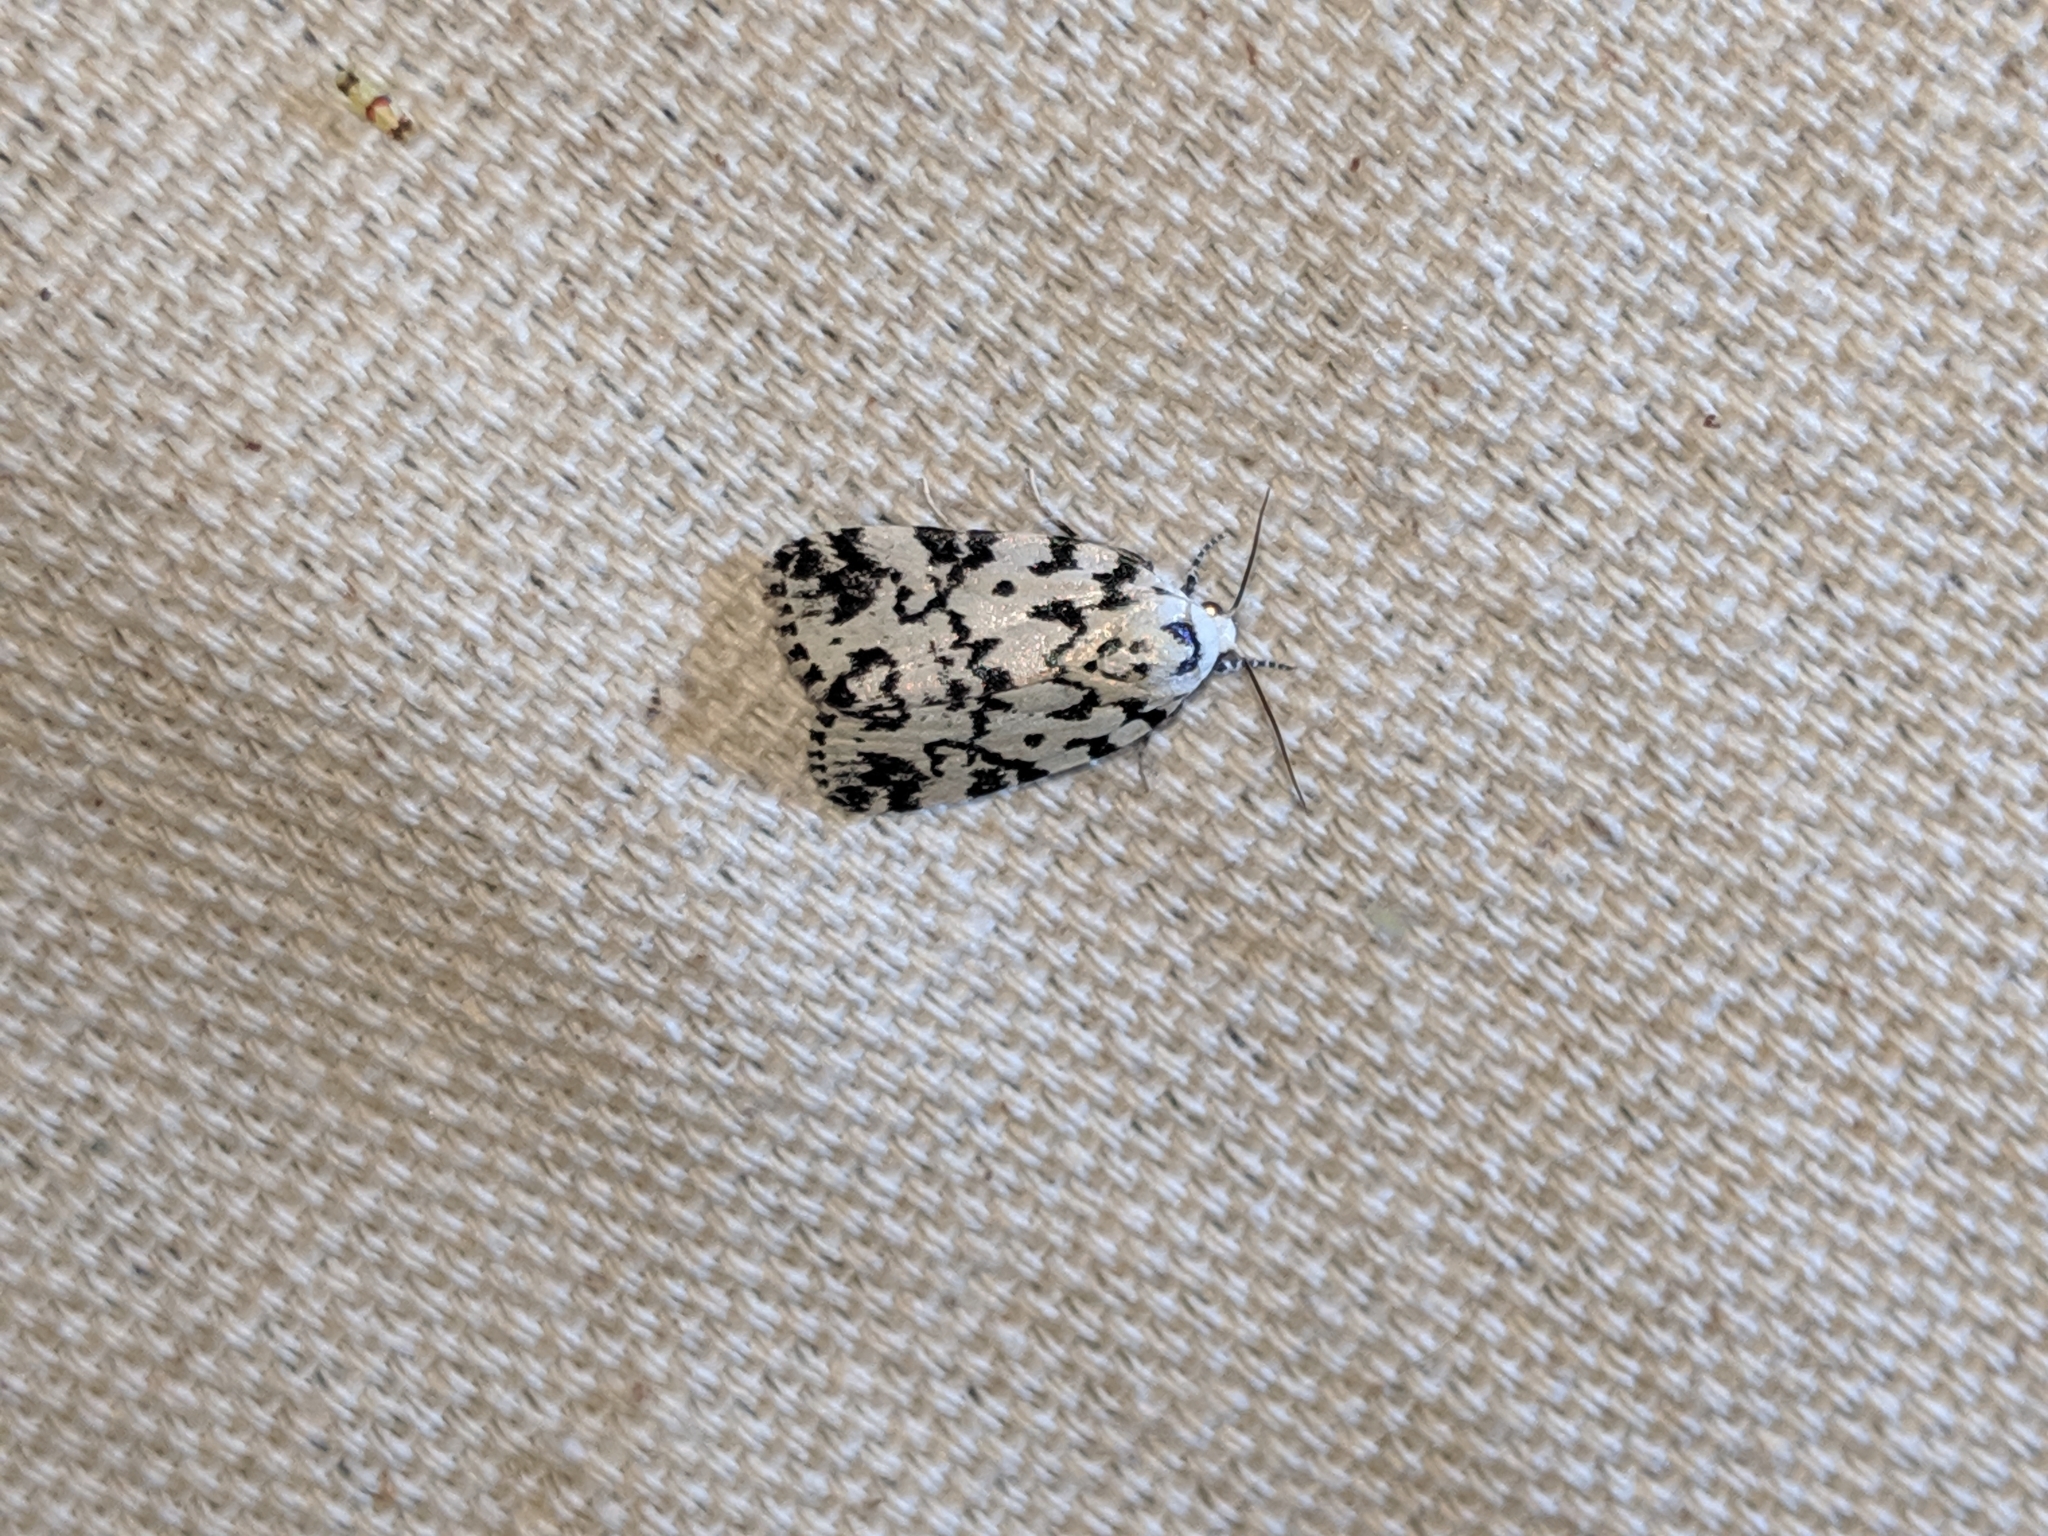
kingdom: Animalia
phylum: Arthropoda
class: Insecta
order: Lepidoptera
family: Noctuidae
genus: Polygrammate
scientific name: Polygrammate hebraeicum
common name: Hebrew moth
